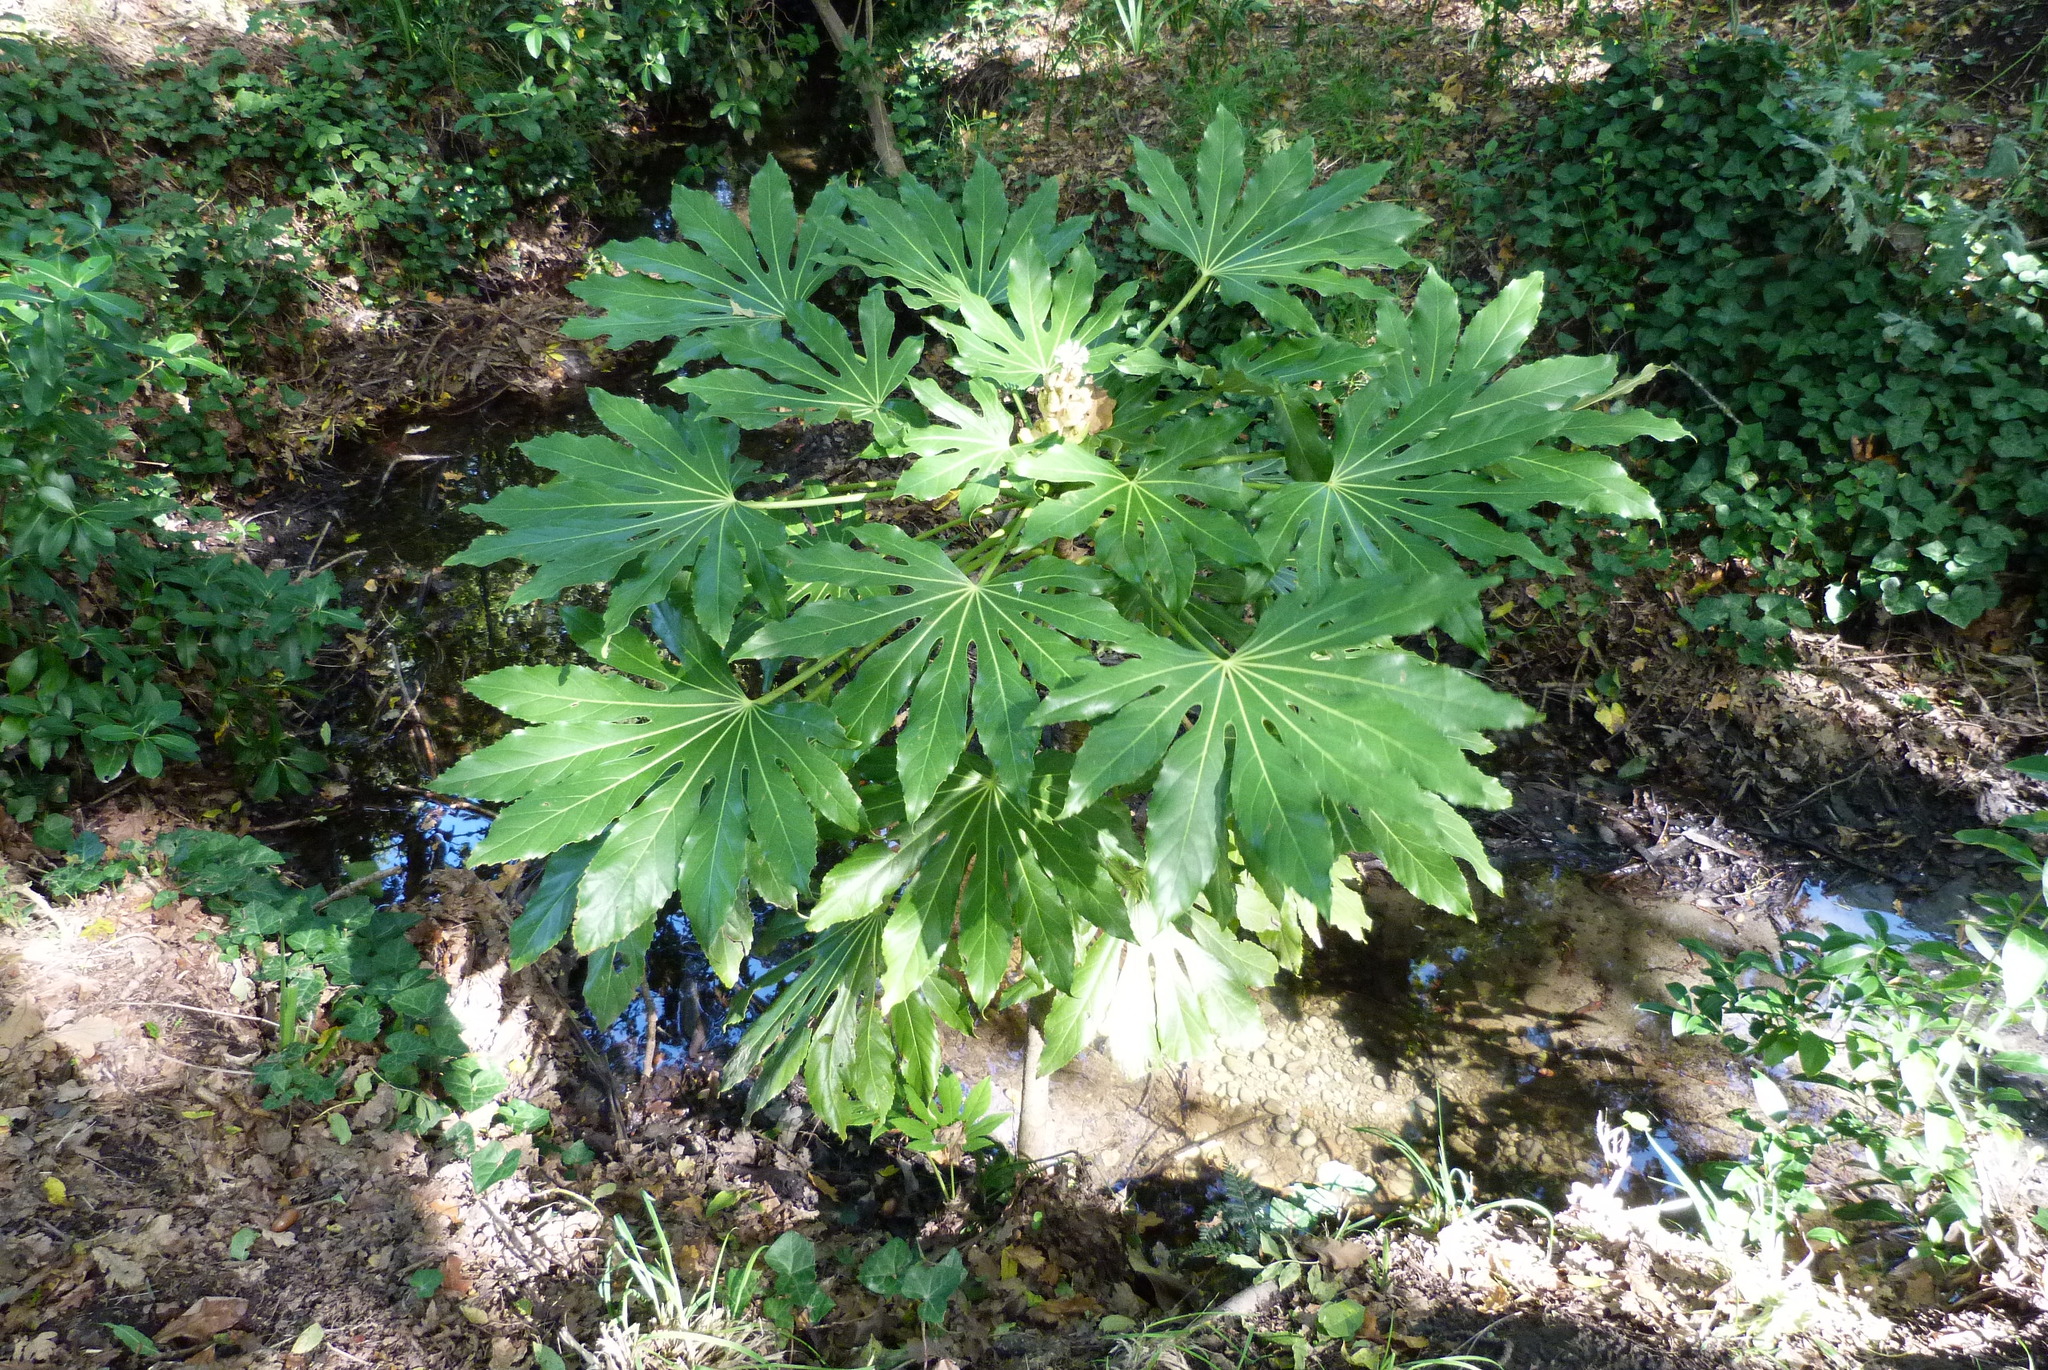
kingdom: Plantae
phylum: Tracheophyta
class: Magnoliopsida
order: Apiales
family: Araliaceae
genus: Fatsia
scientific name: Fatsia japonica
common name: Fatsia
